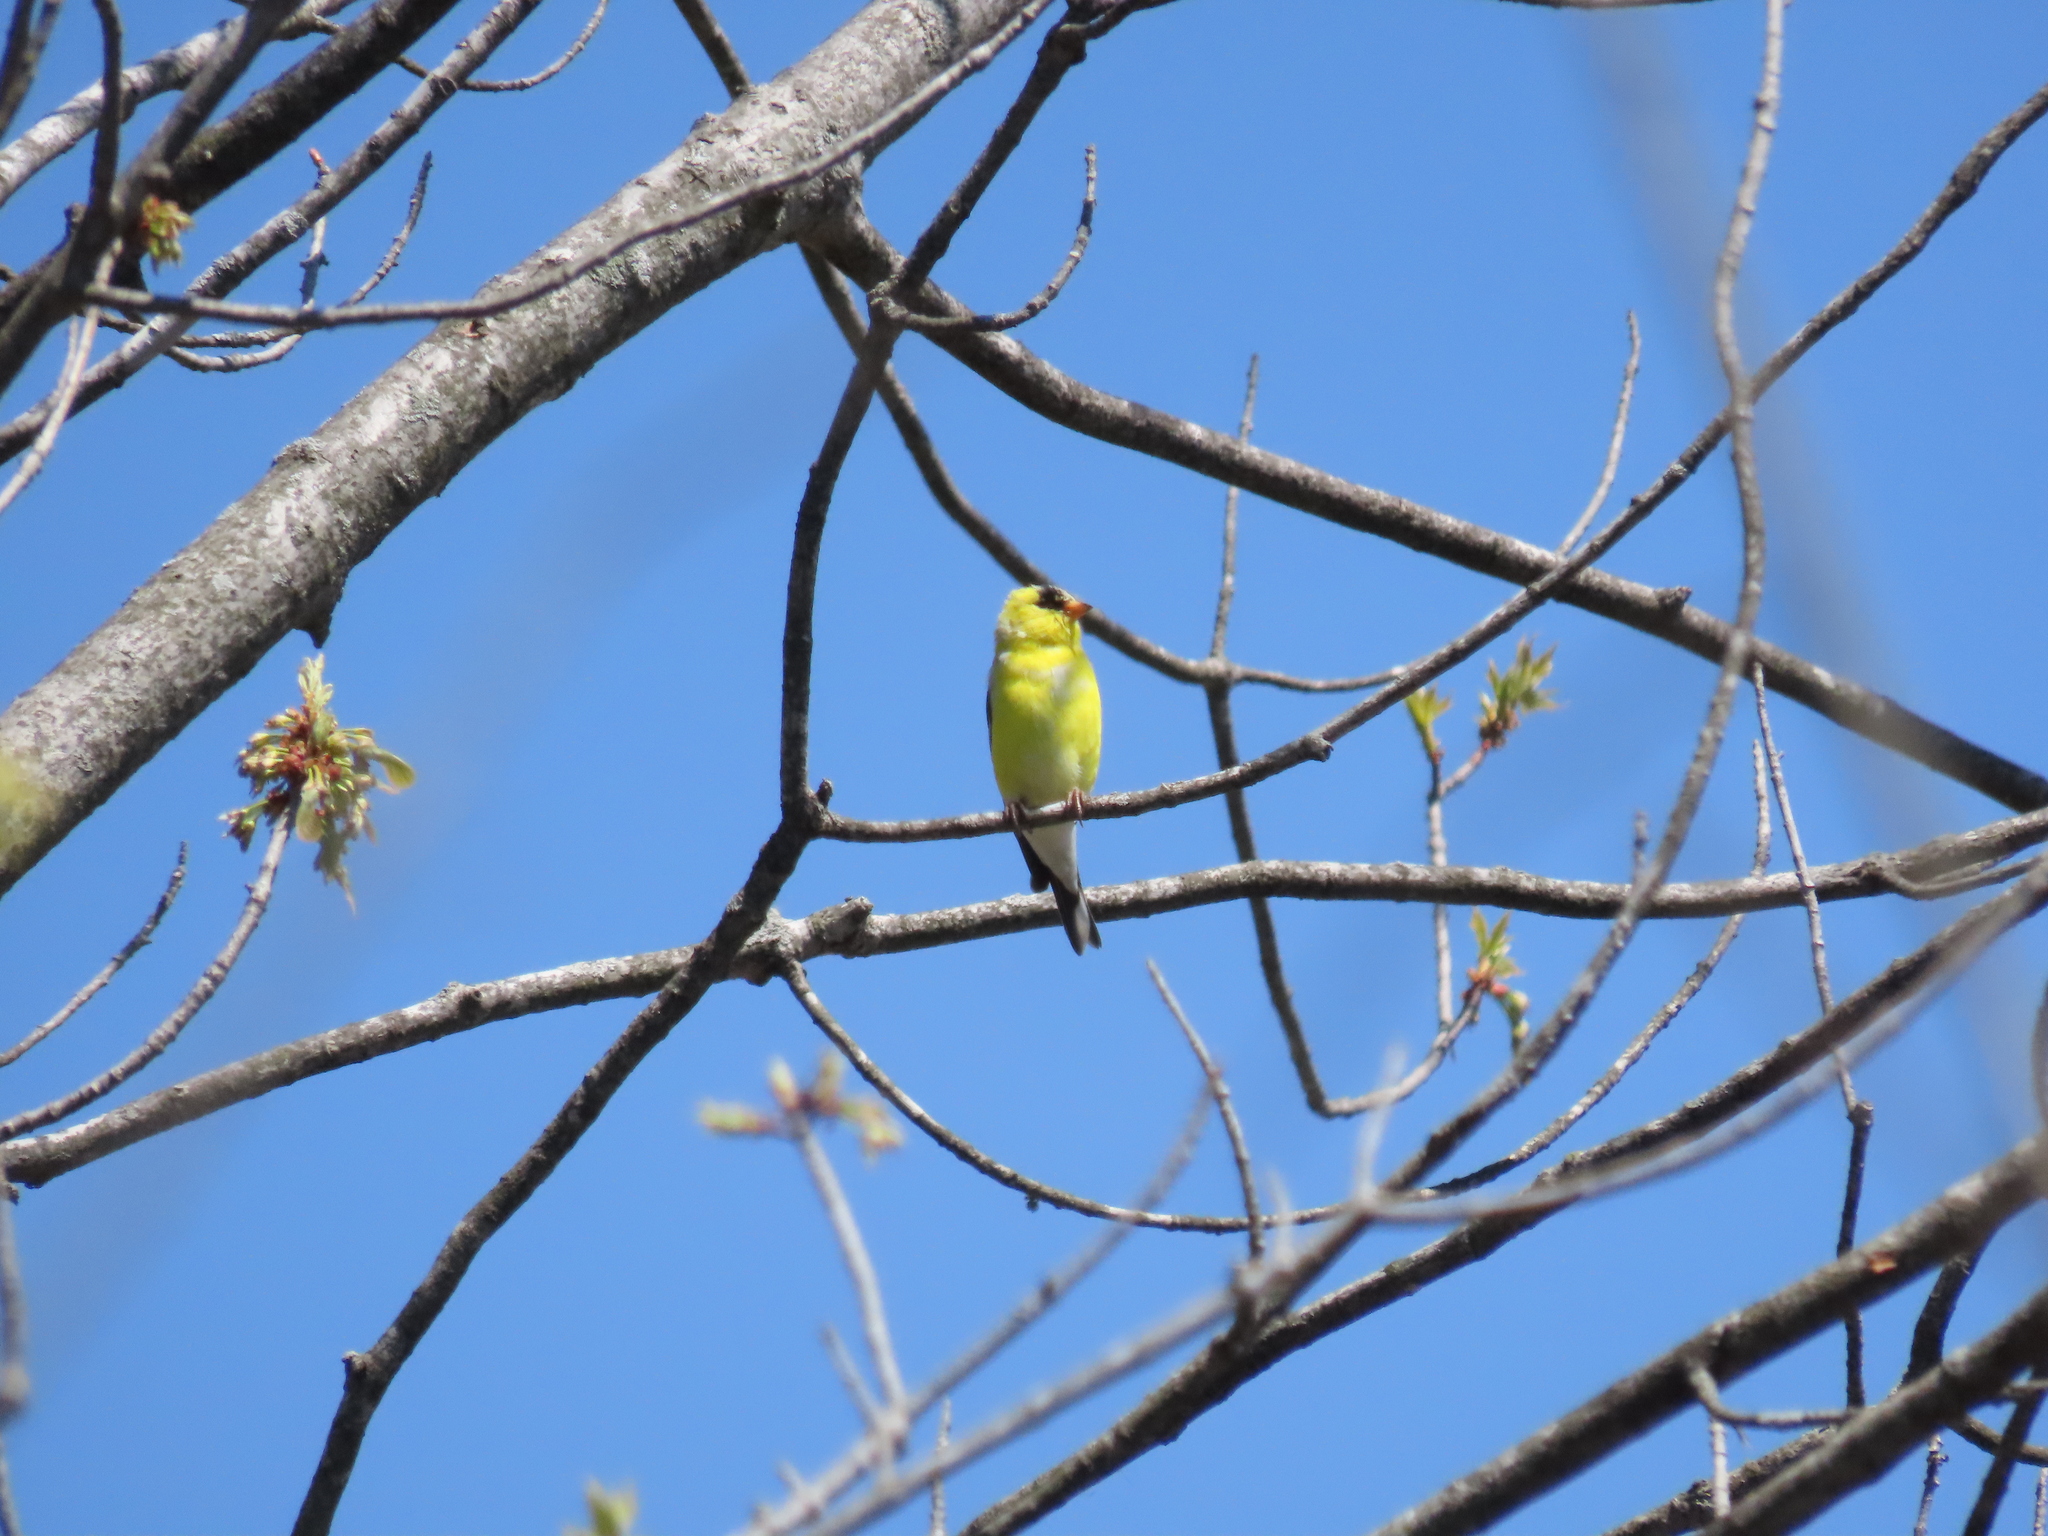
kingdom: Animalia
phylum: Chordata
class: Aves
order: Passeriformes
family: Fringillidae
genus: Spinus
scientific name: Spinus tristis
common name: American goldfinch
